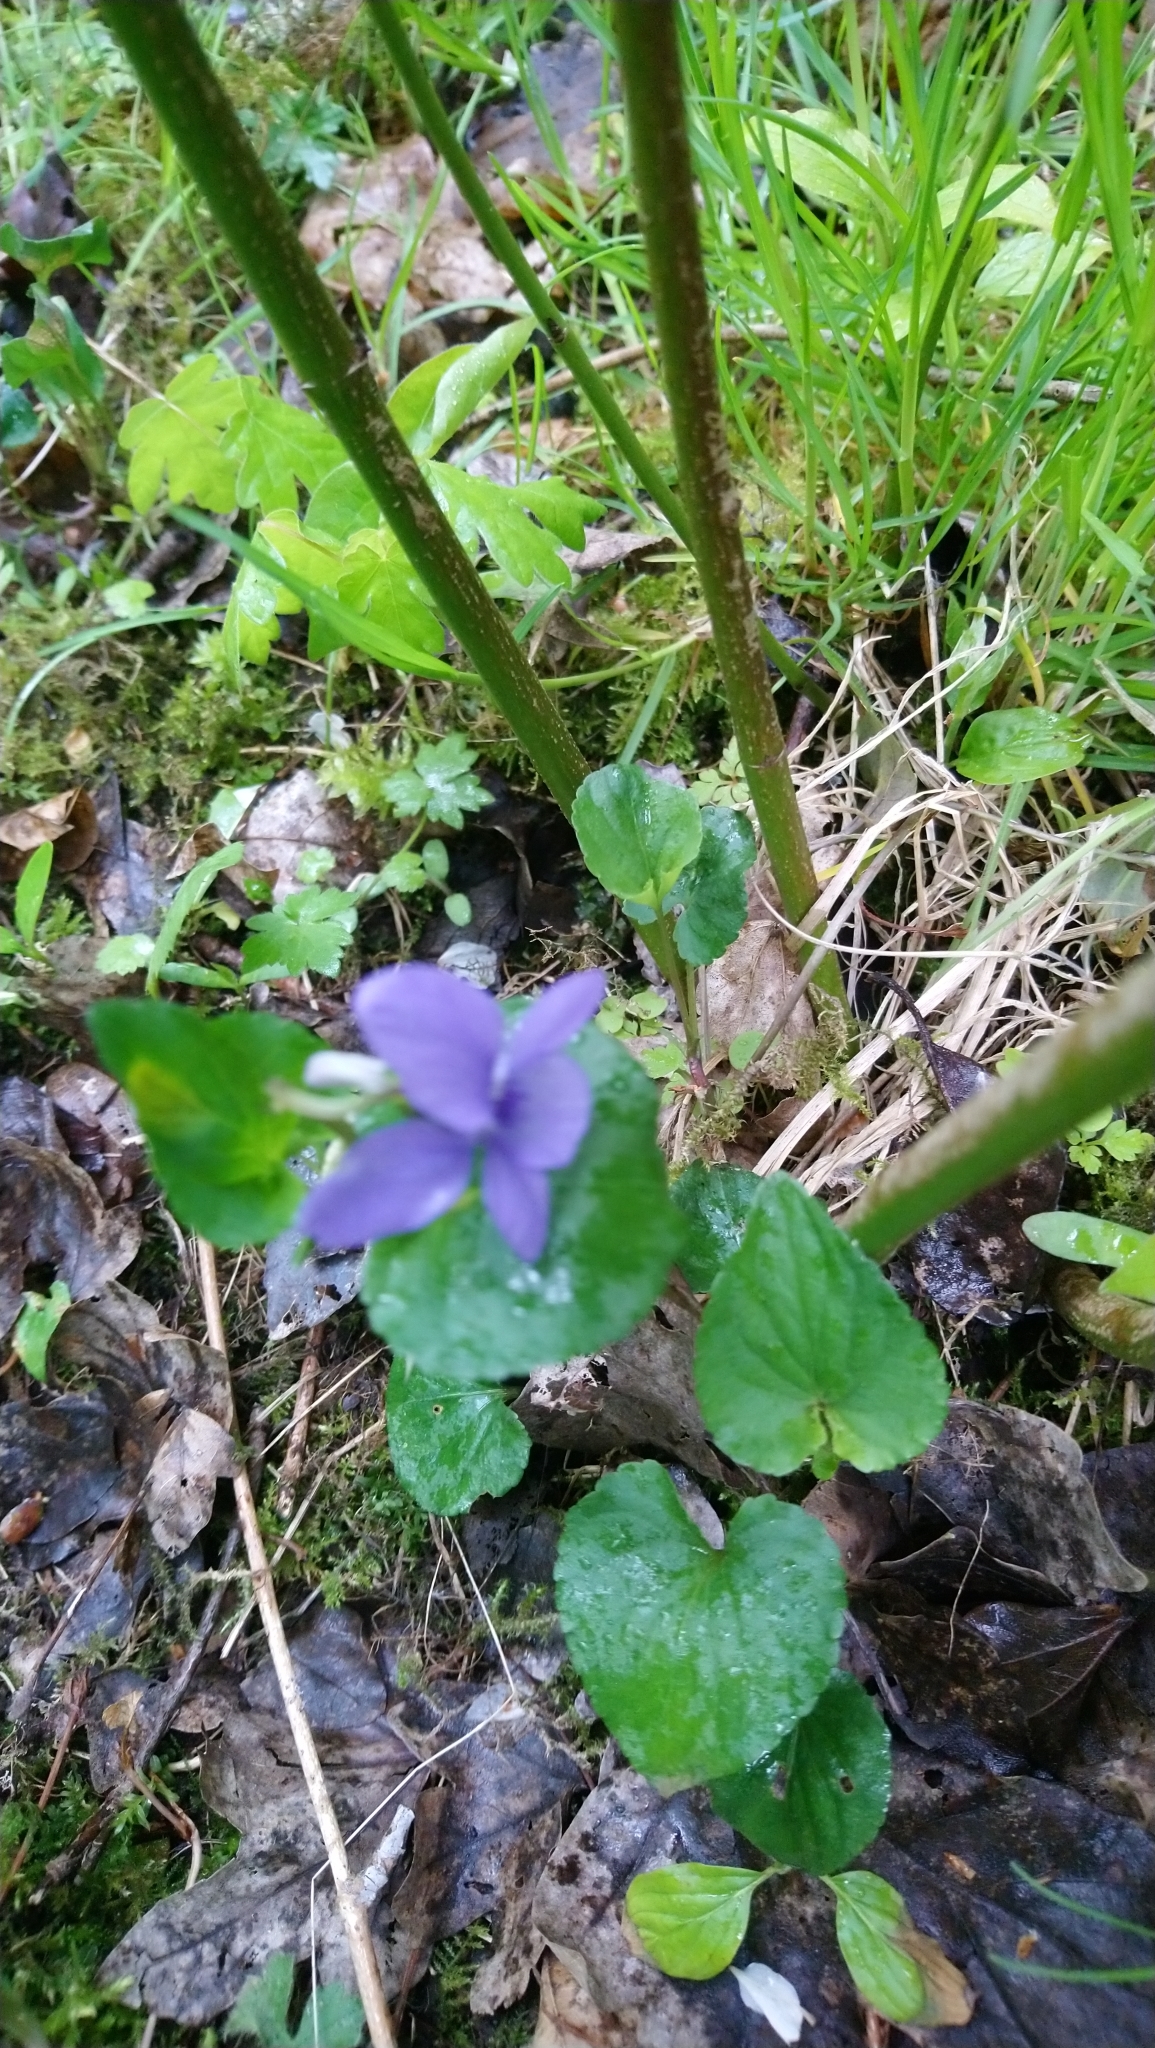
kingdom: Plantae
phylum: Tracheophyta
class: Magnoliopsida
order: Malpighiales
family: Violaceae
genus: Viola
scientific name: Viola riviniana
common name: Common dog-violet
